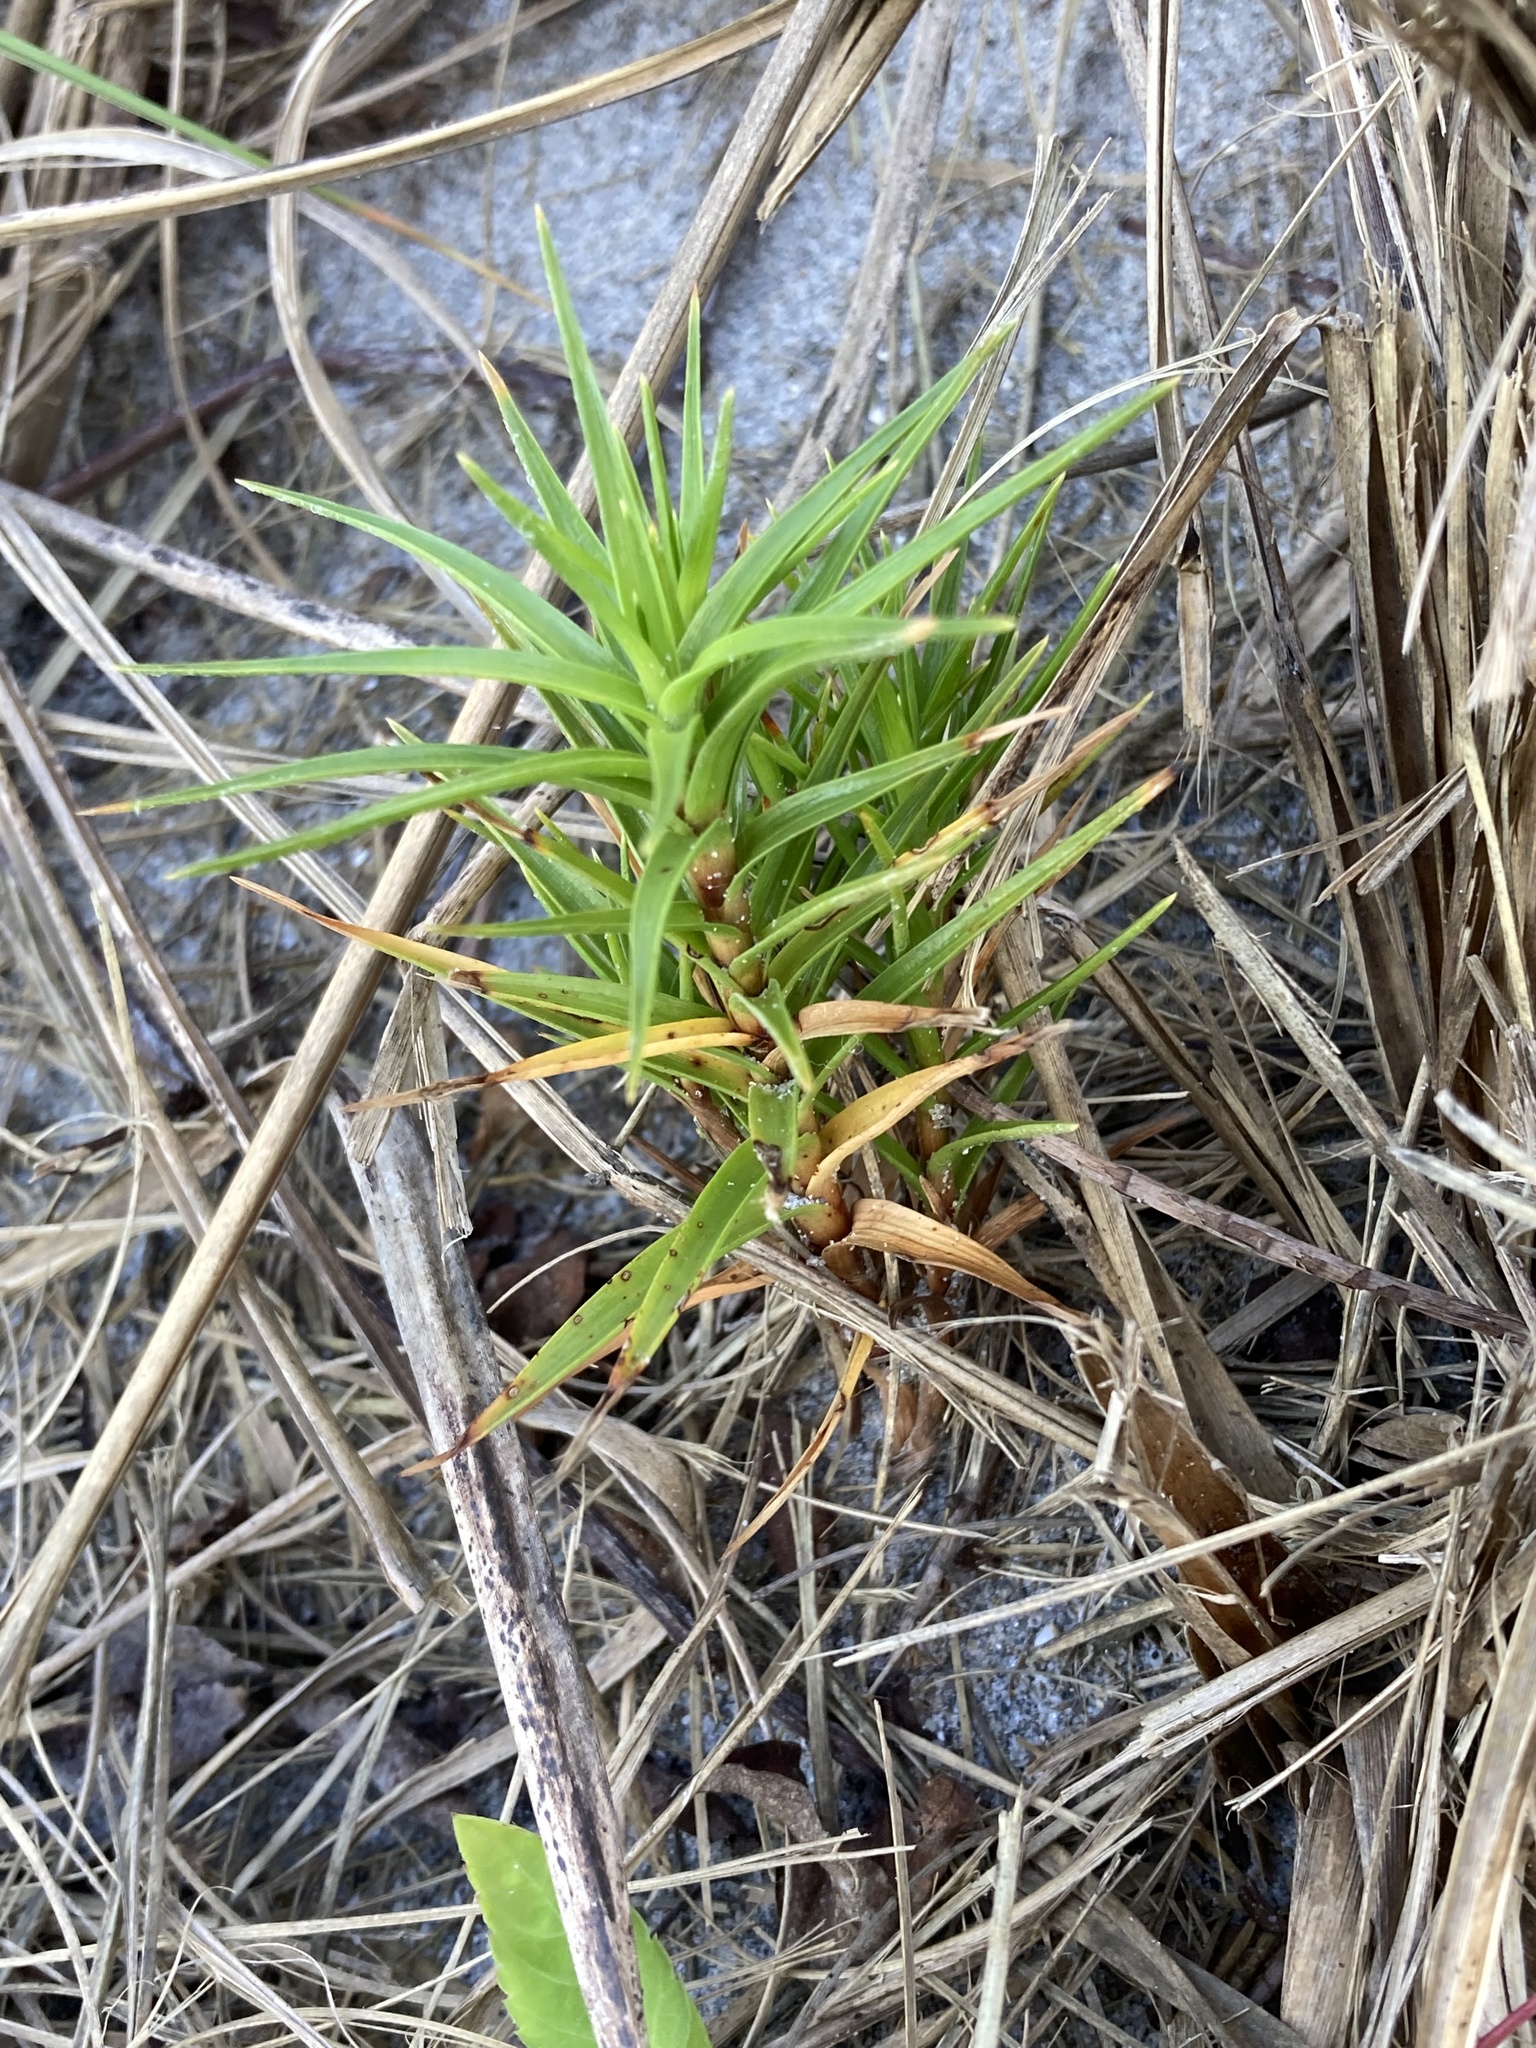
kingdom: Plantae
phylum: Tracheophyta
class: Liliopsida
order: Poales
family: Cyperaceae
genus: Cyperus
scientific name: Cyperus pedunculatus
